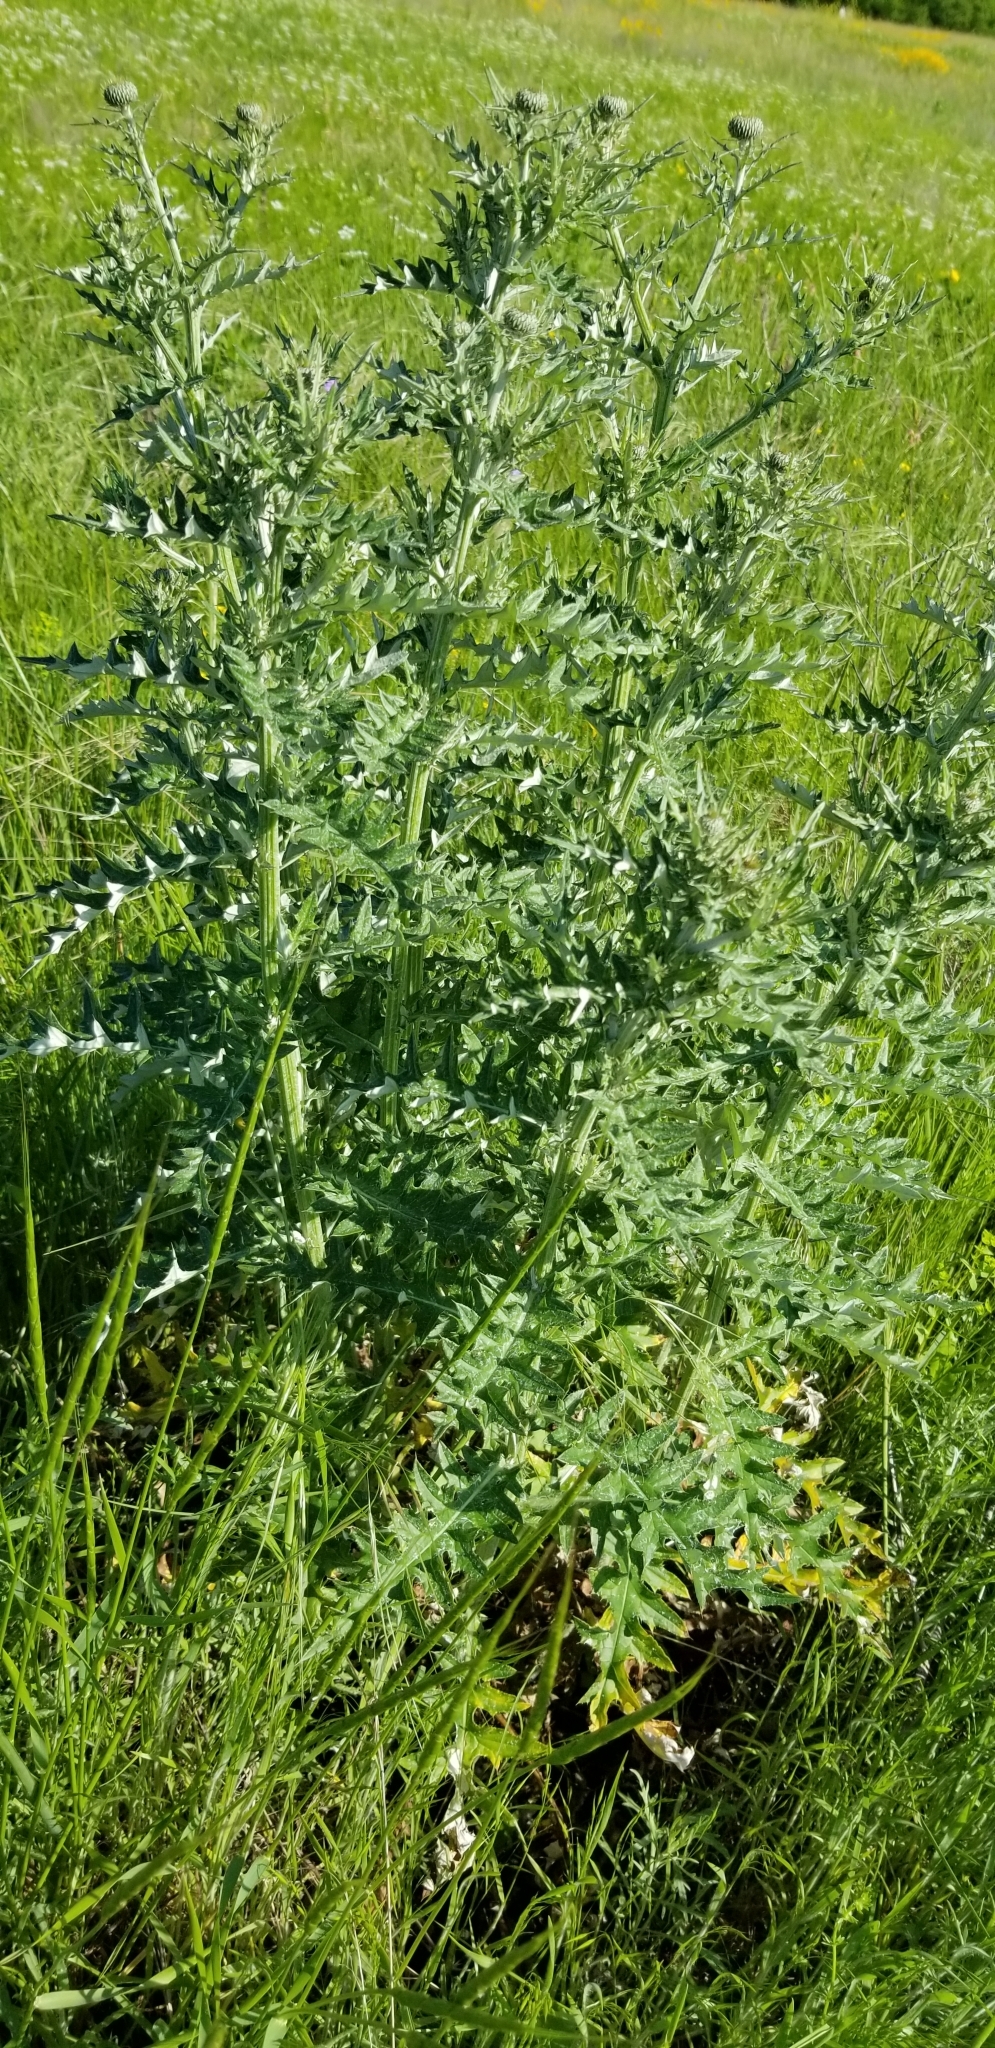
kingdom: Plantae
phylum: Tracheophyta
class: Magnoliopsida
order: Asterales
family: Asteraceae
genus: Cirsium
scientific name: Cirsium texanum
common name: Texas purple thistle
